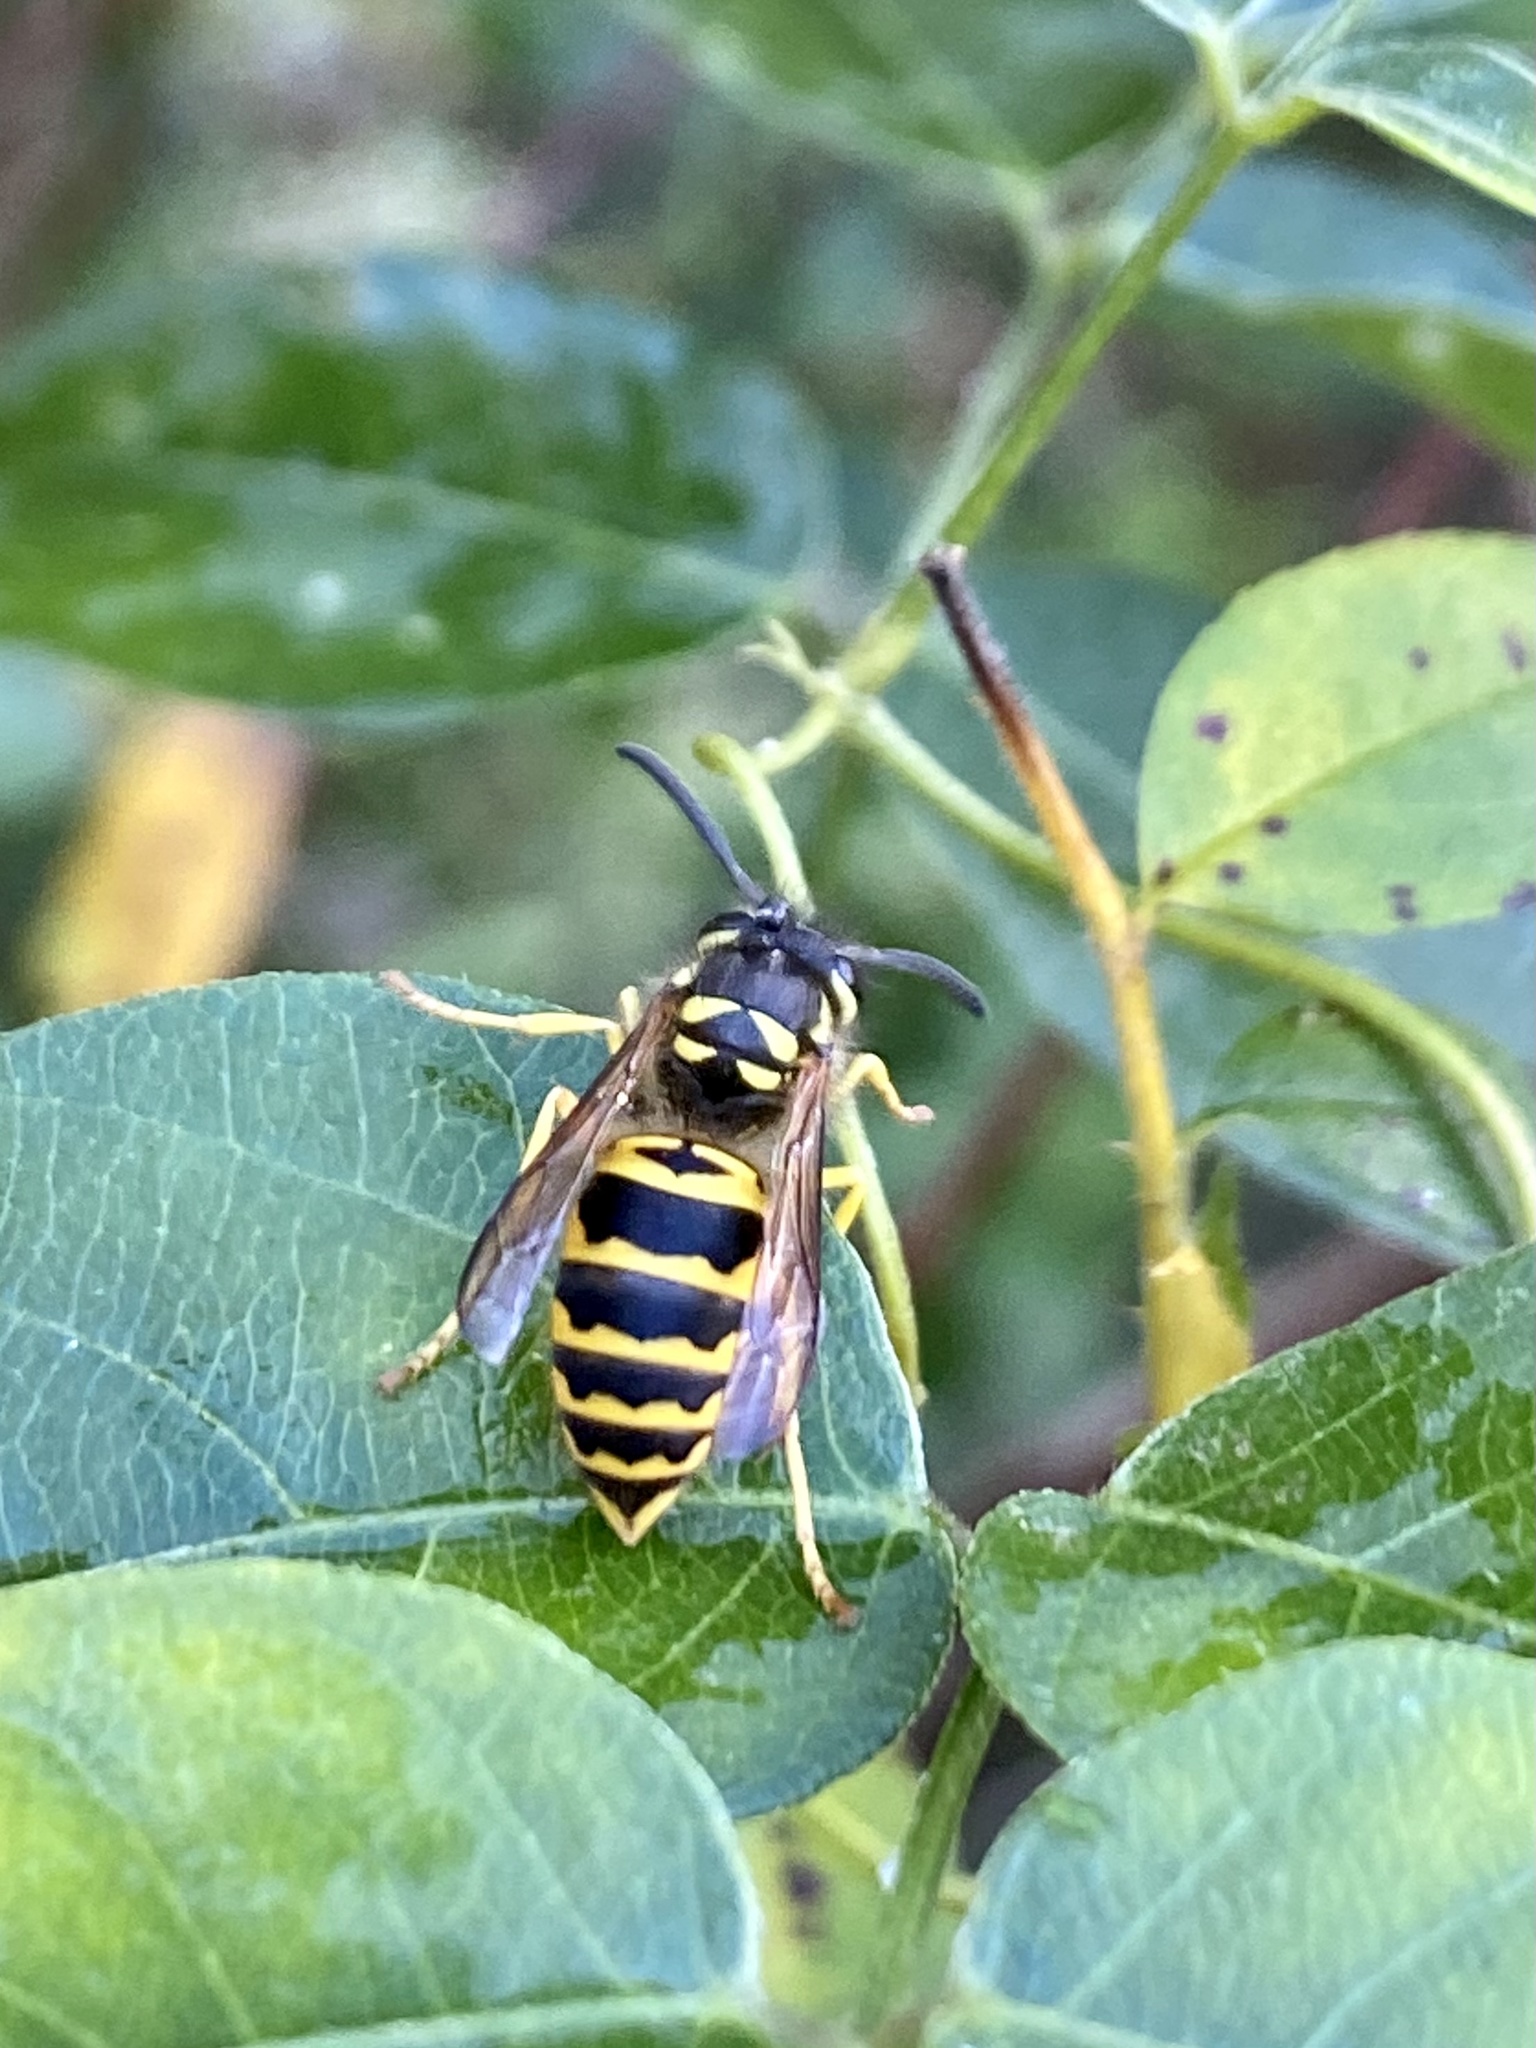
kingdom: Animalia
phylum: Arthropoda
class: Insecta
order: Hymenoptera
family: Vespidae
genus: Vespula
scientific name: Vespula maculifrons
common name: Eastern yellowjacket
